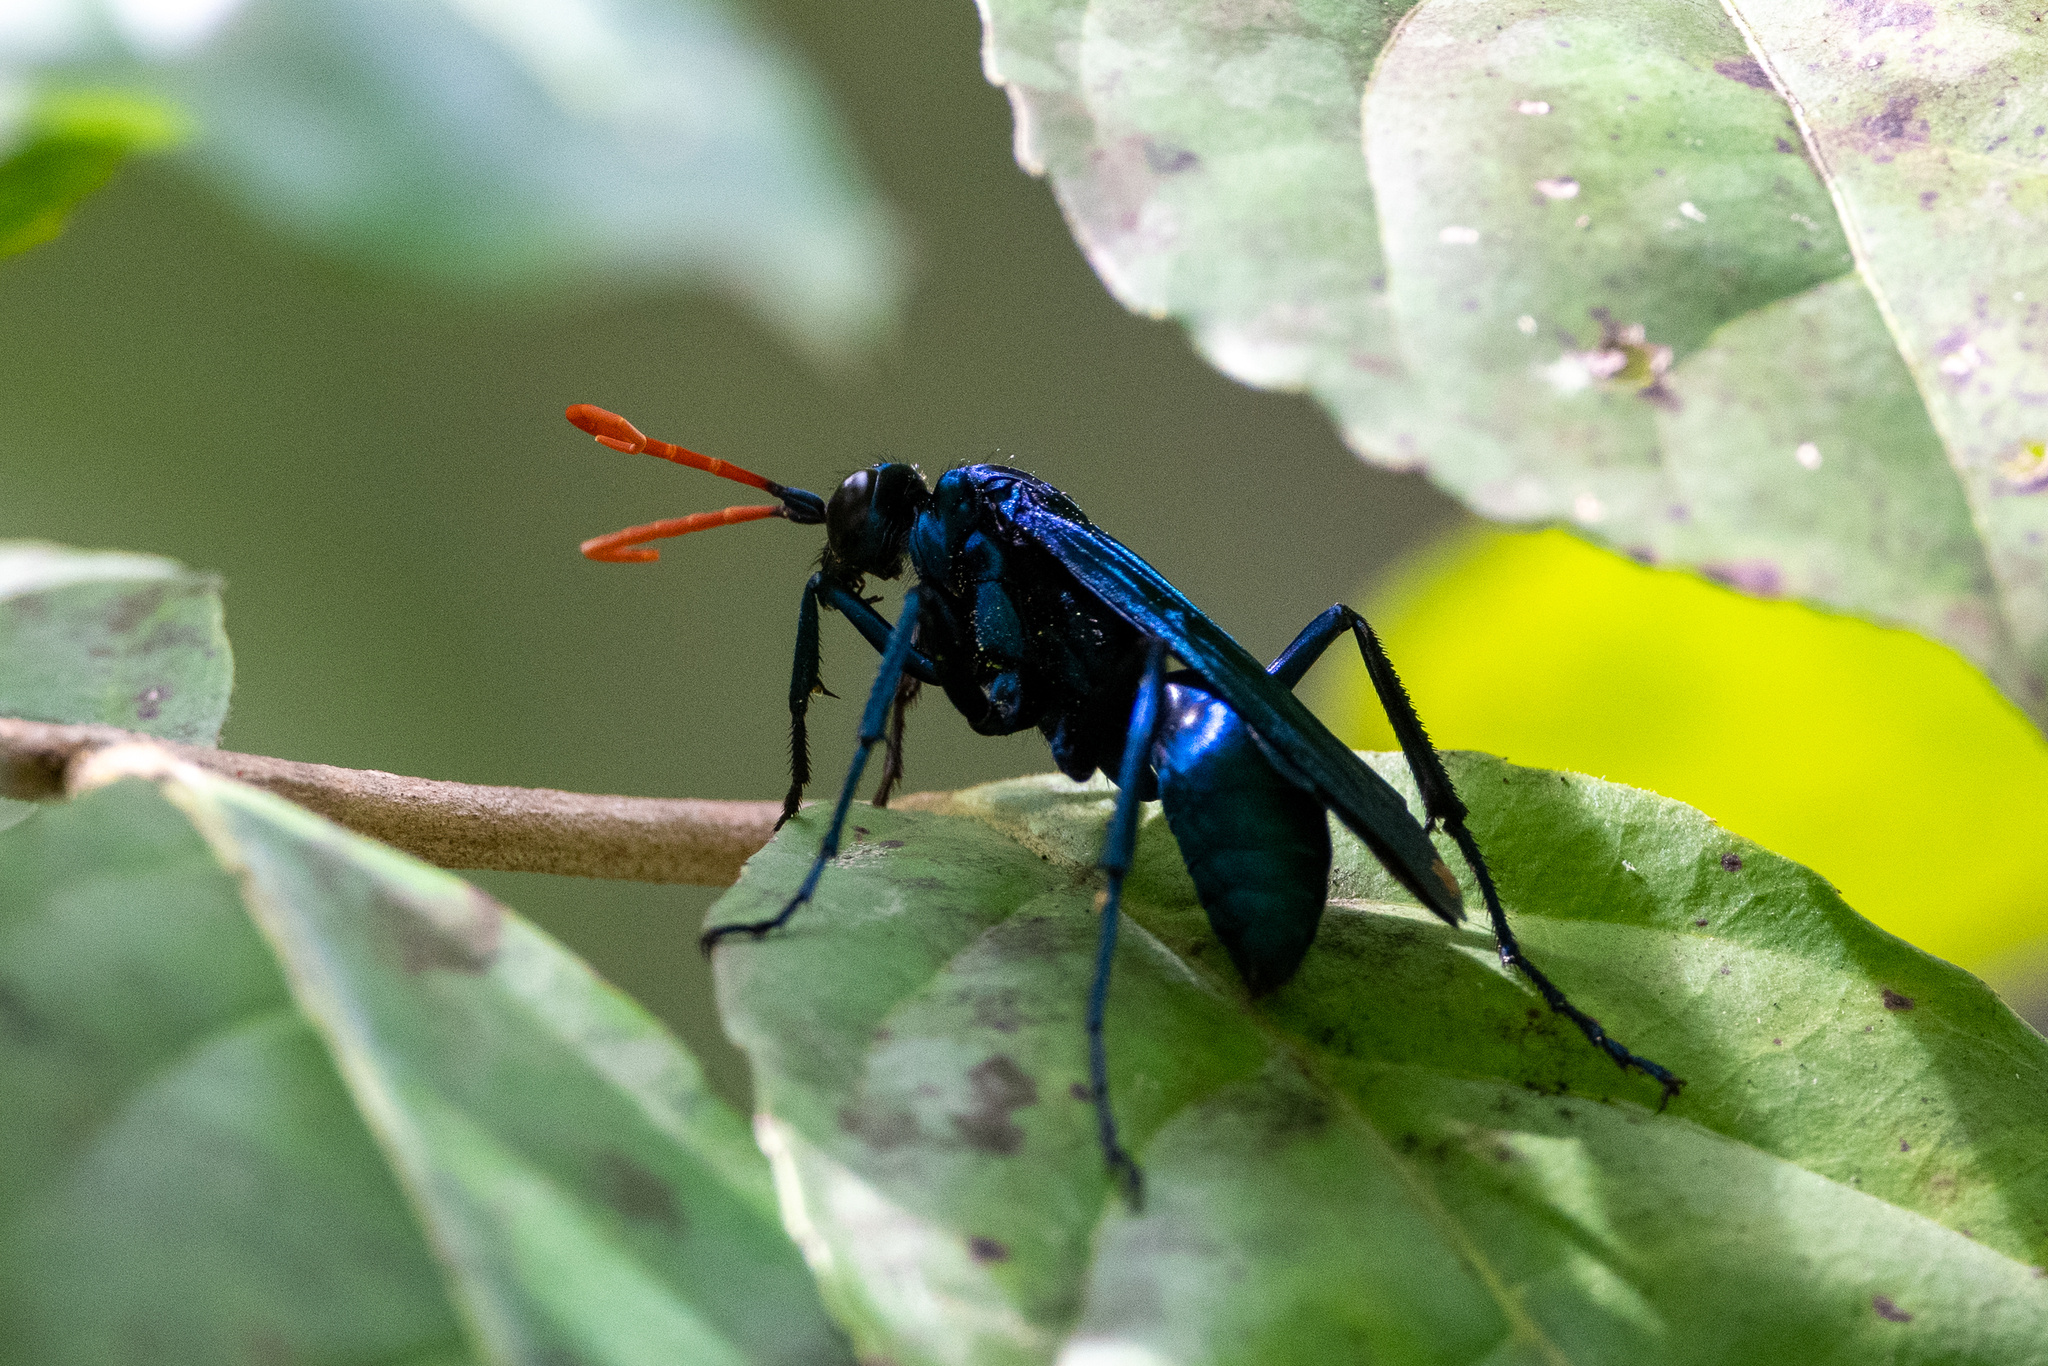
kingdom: Animalia
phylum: Arthropoda
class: Insecta
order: Hymenoptera
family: Pompilidae
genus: Pepsis
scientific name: Pepsis ruficornis
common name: Orange-horned tarantula hawk
